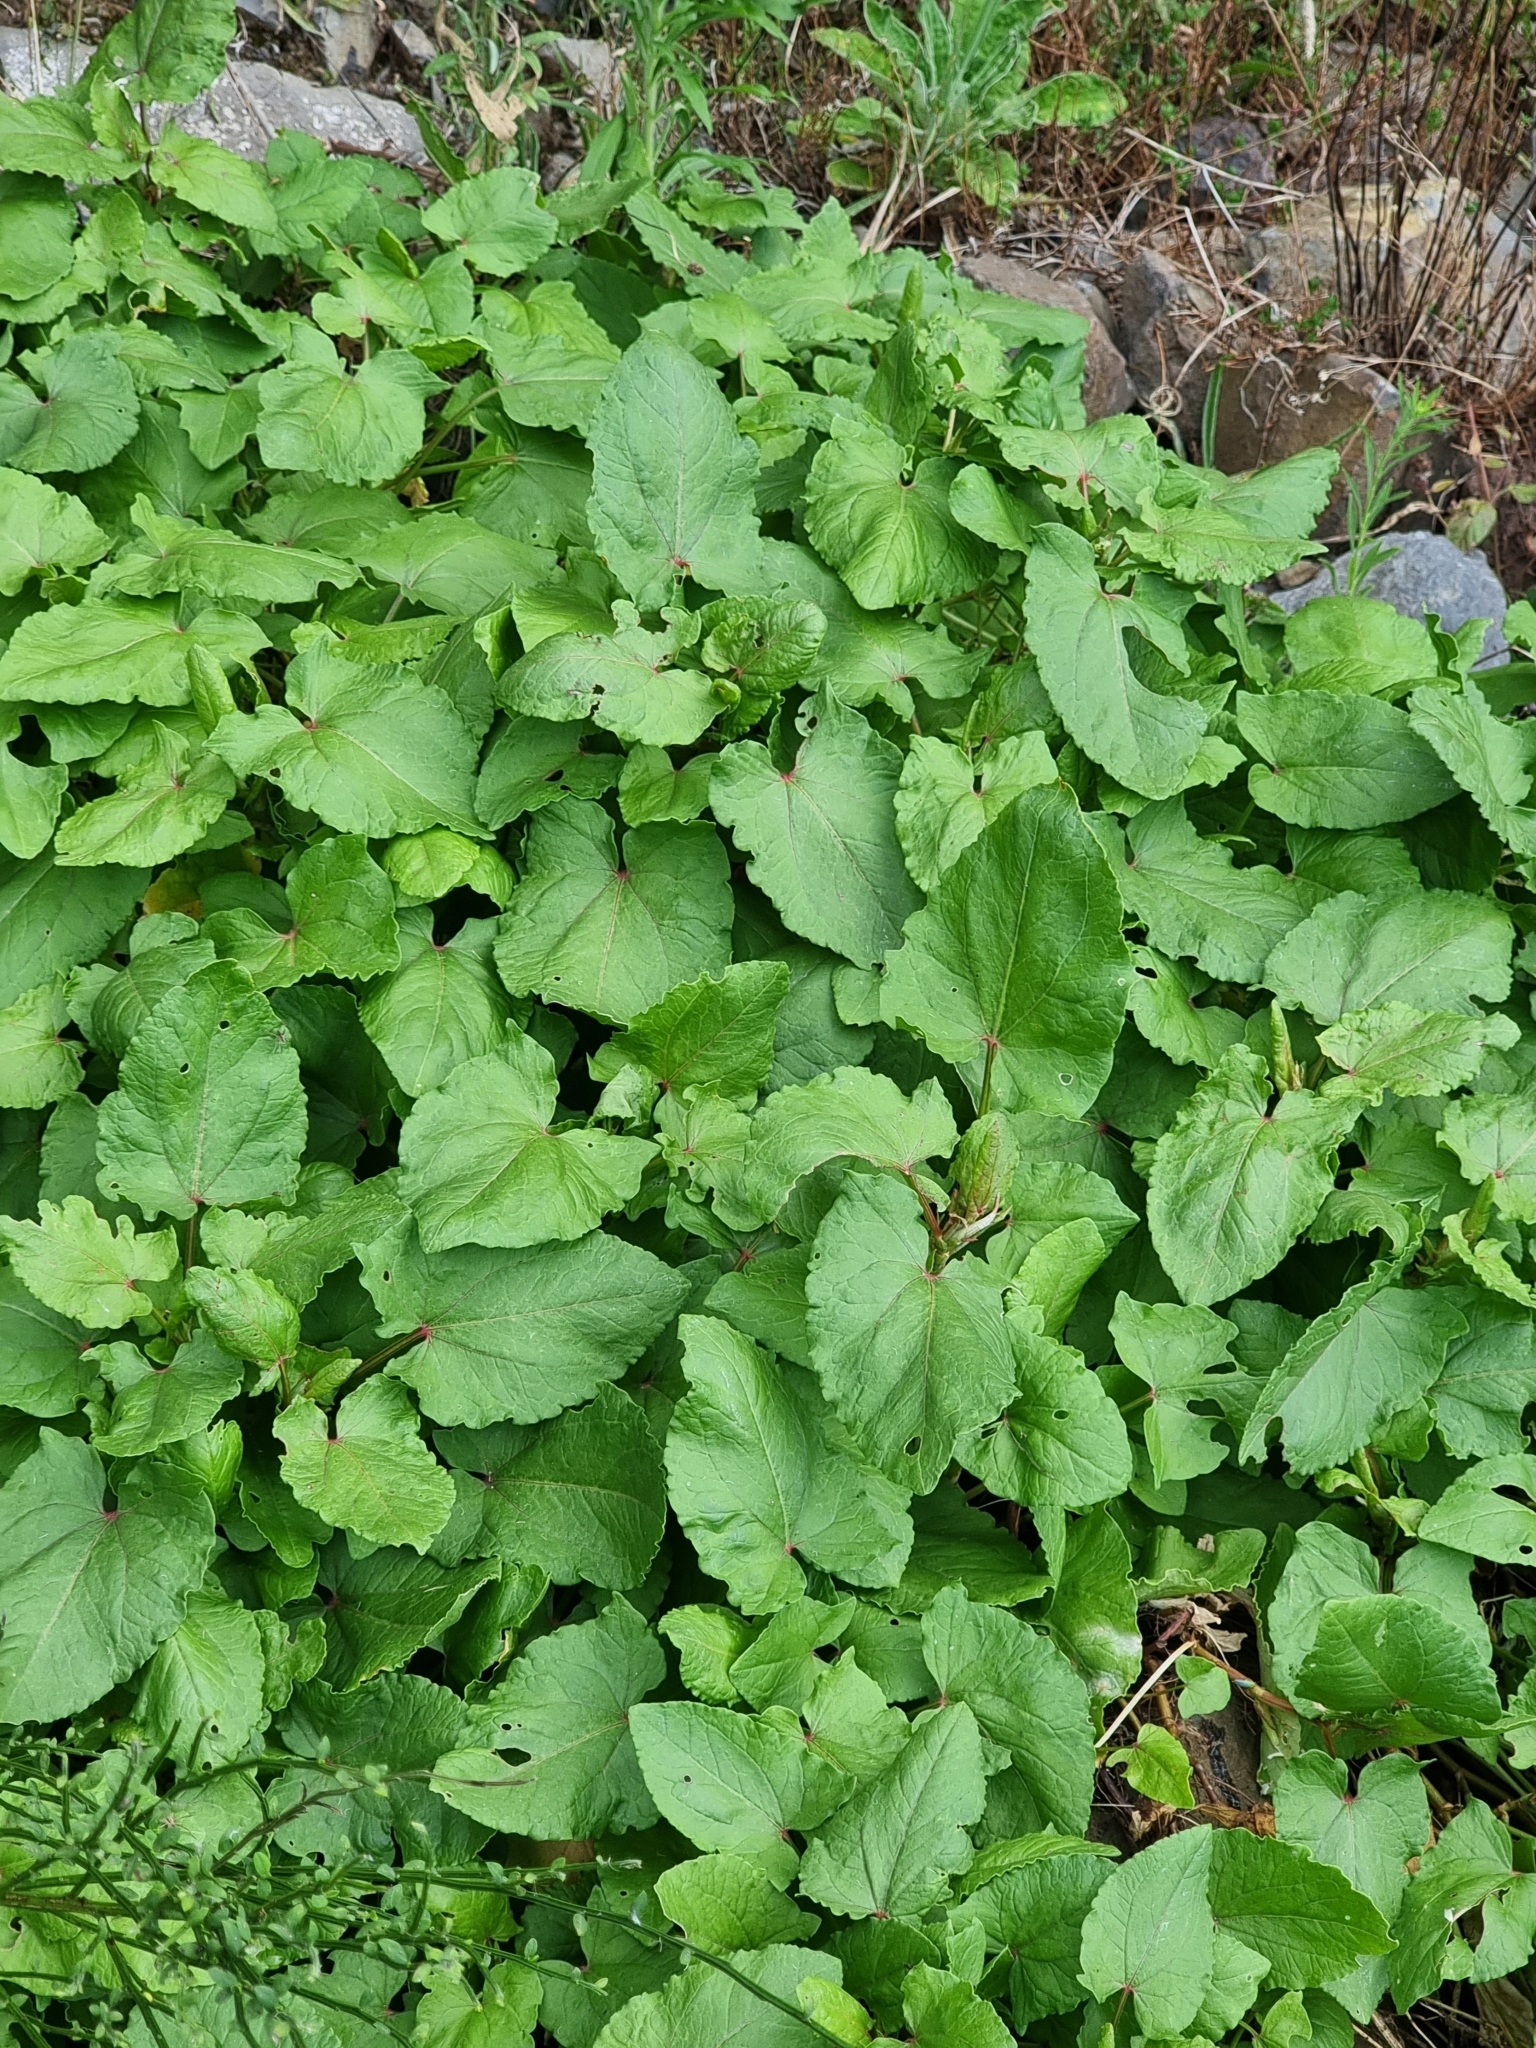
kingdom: Plantae
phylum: Tracheophyta
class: Magnoliopsida
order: Caryophyllales
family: Polygonaceae
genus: Rumex
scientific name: Rumex maderensis
